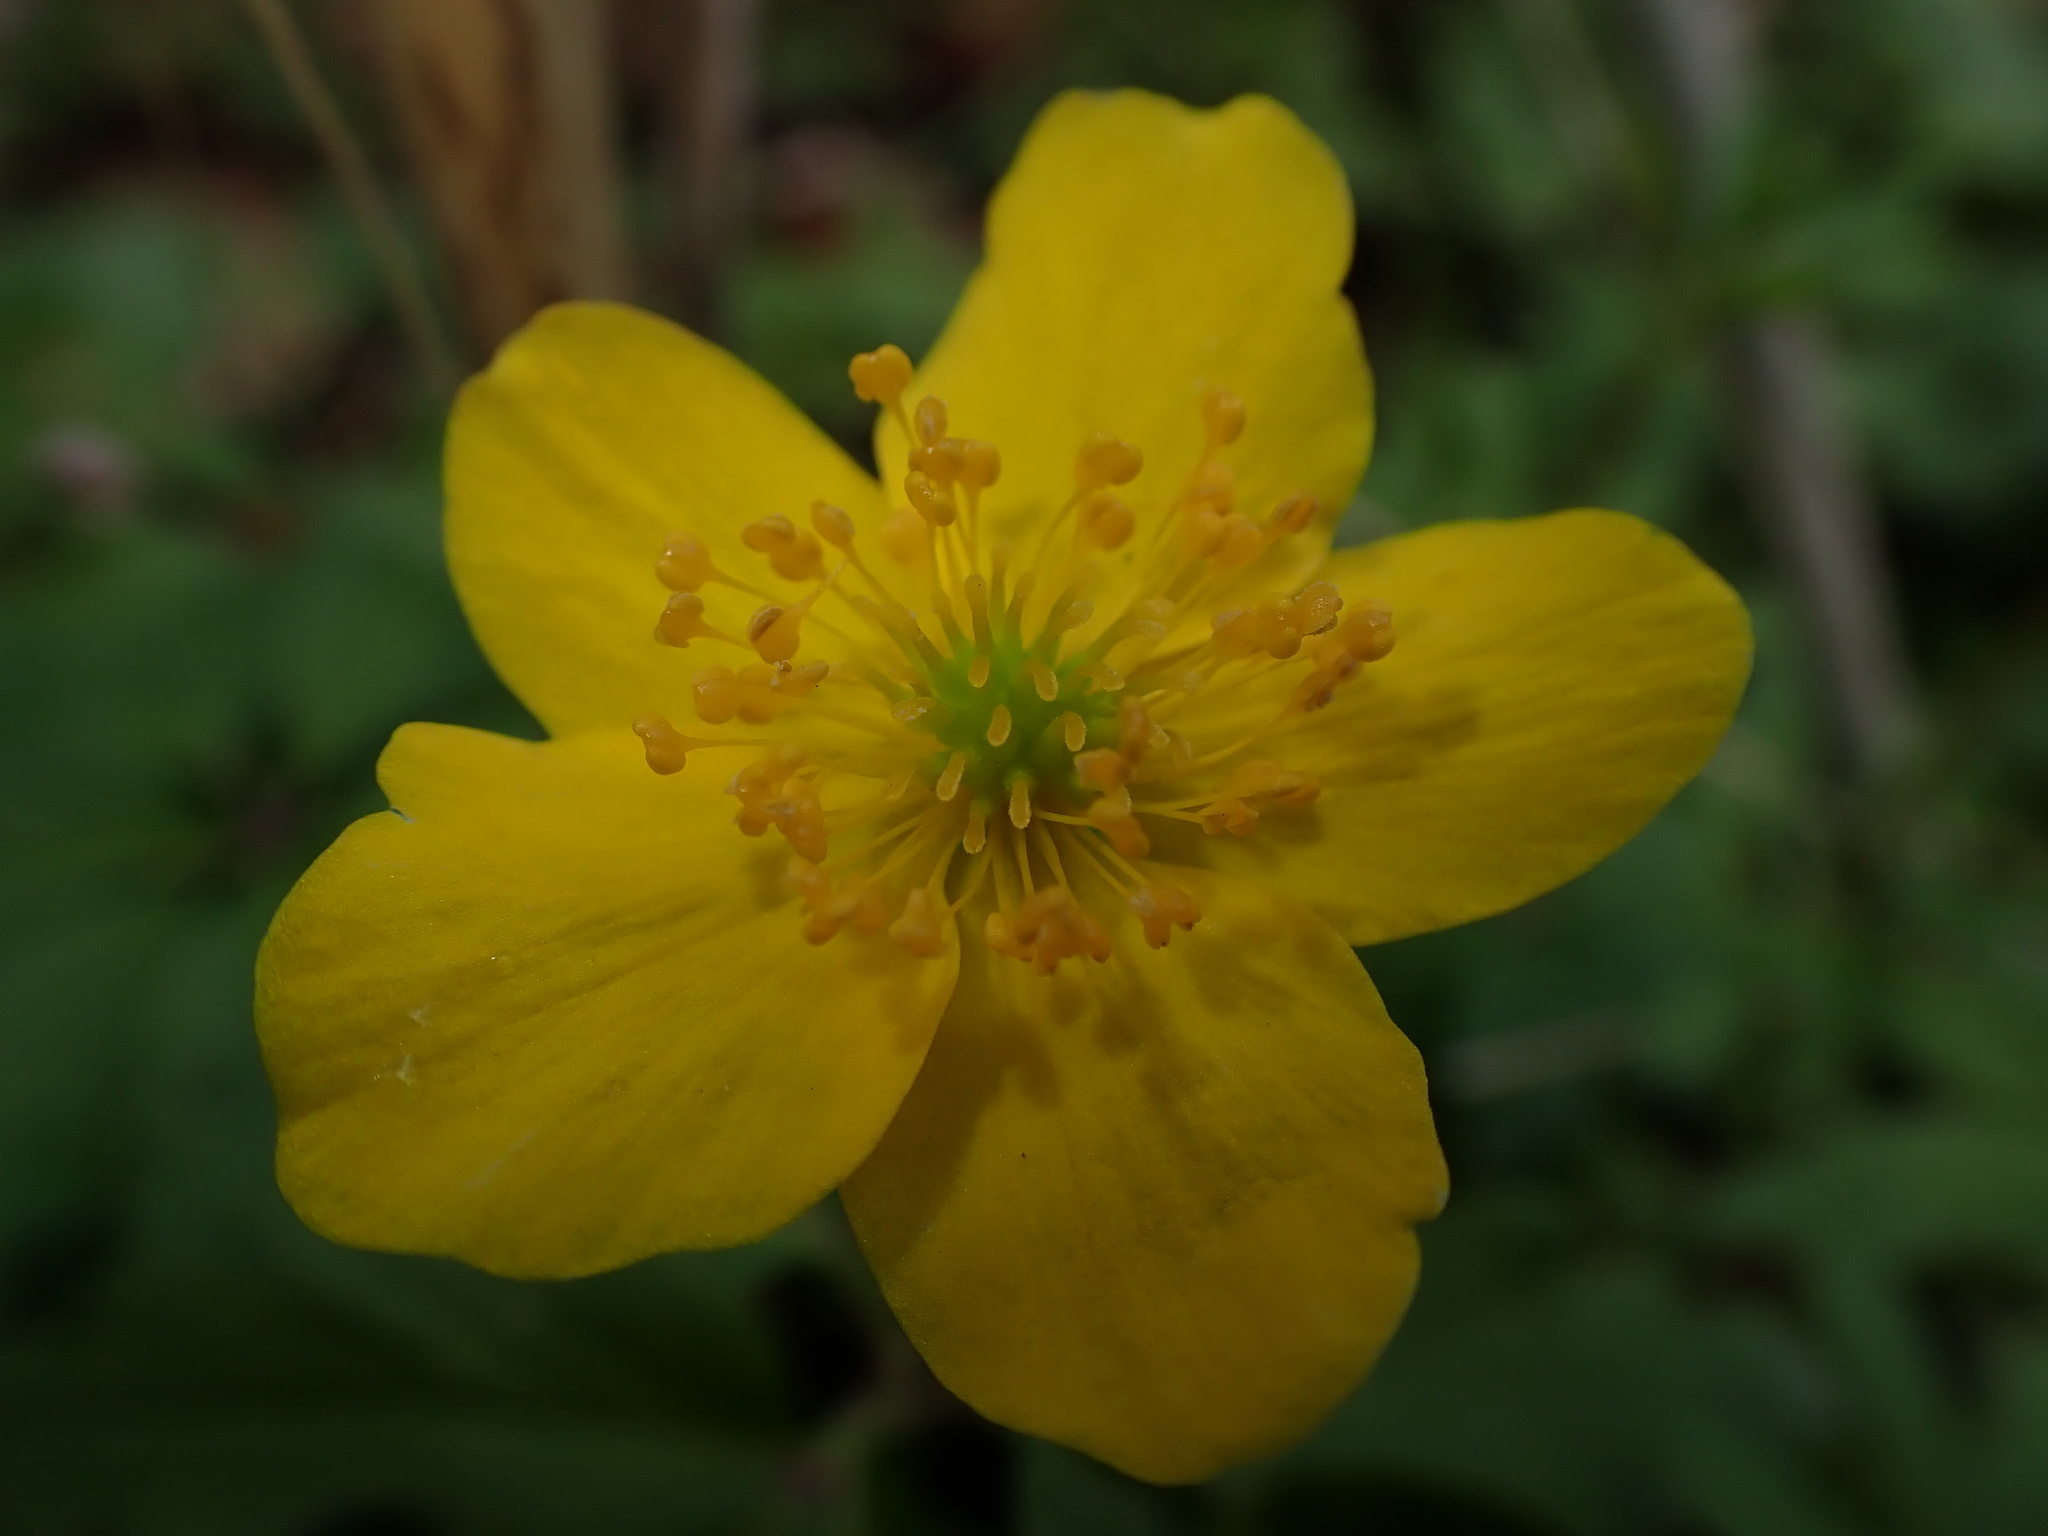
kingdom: Plantae
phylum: Tracheophyta
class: Magnoliopsida
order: Ranunculales
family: Ranunculaceae
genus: Anemone
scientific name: Anemone ranunculoides
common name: Yellow anemone
